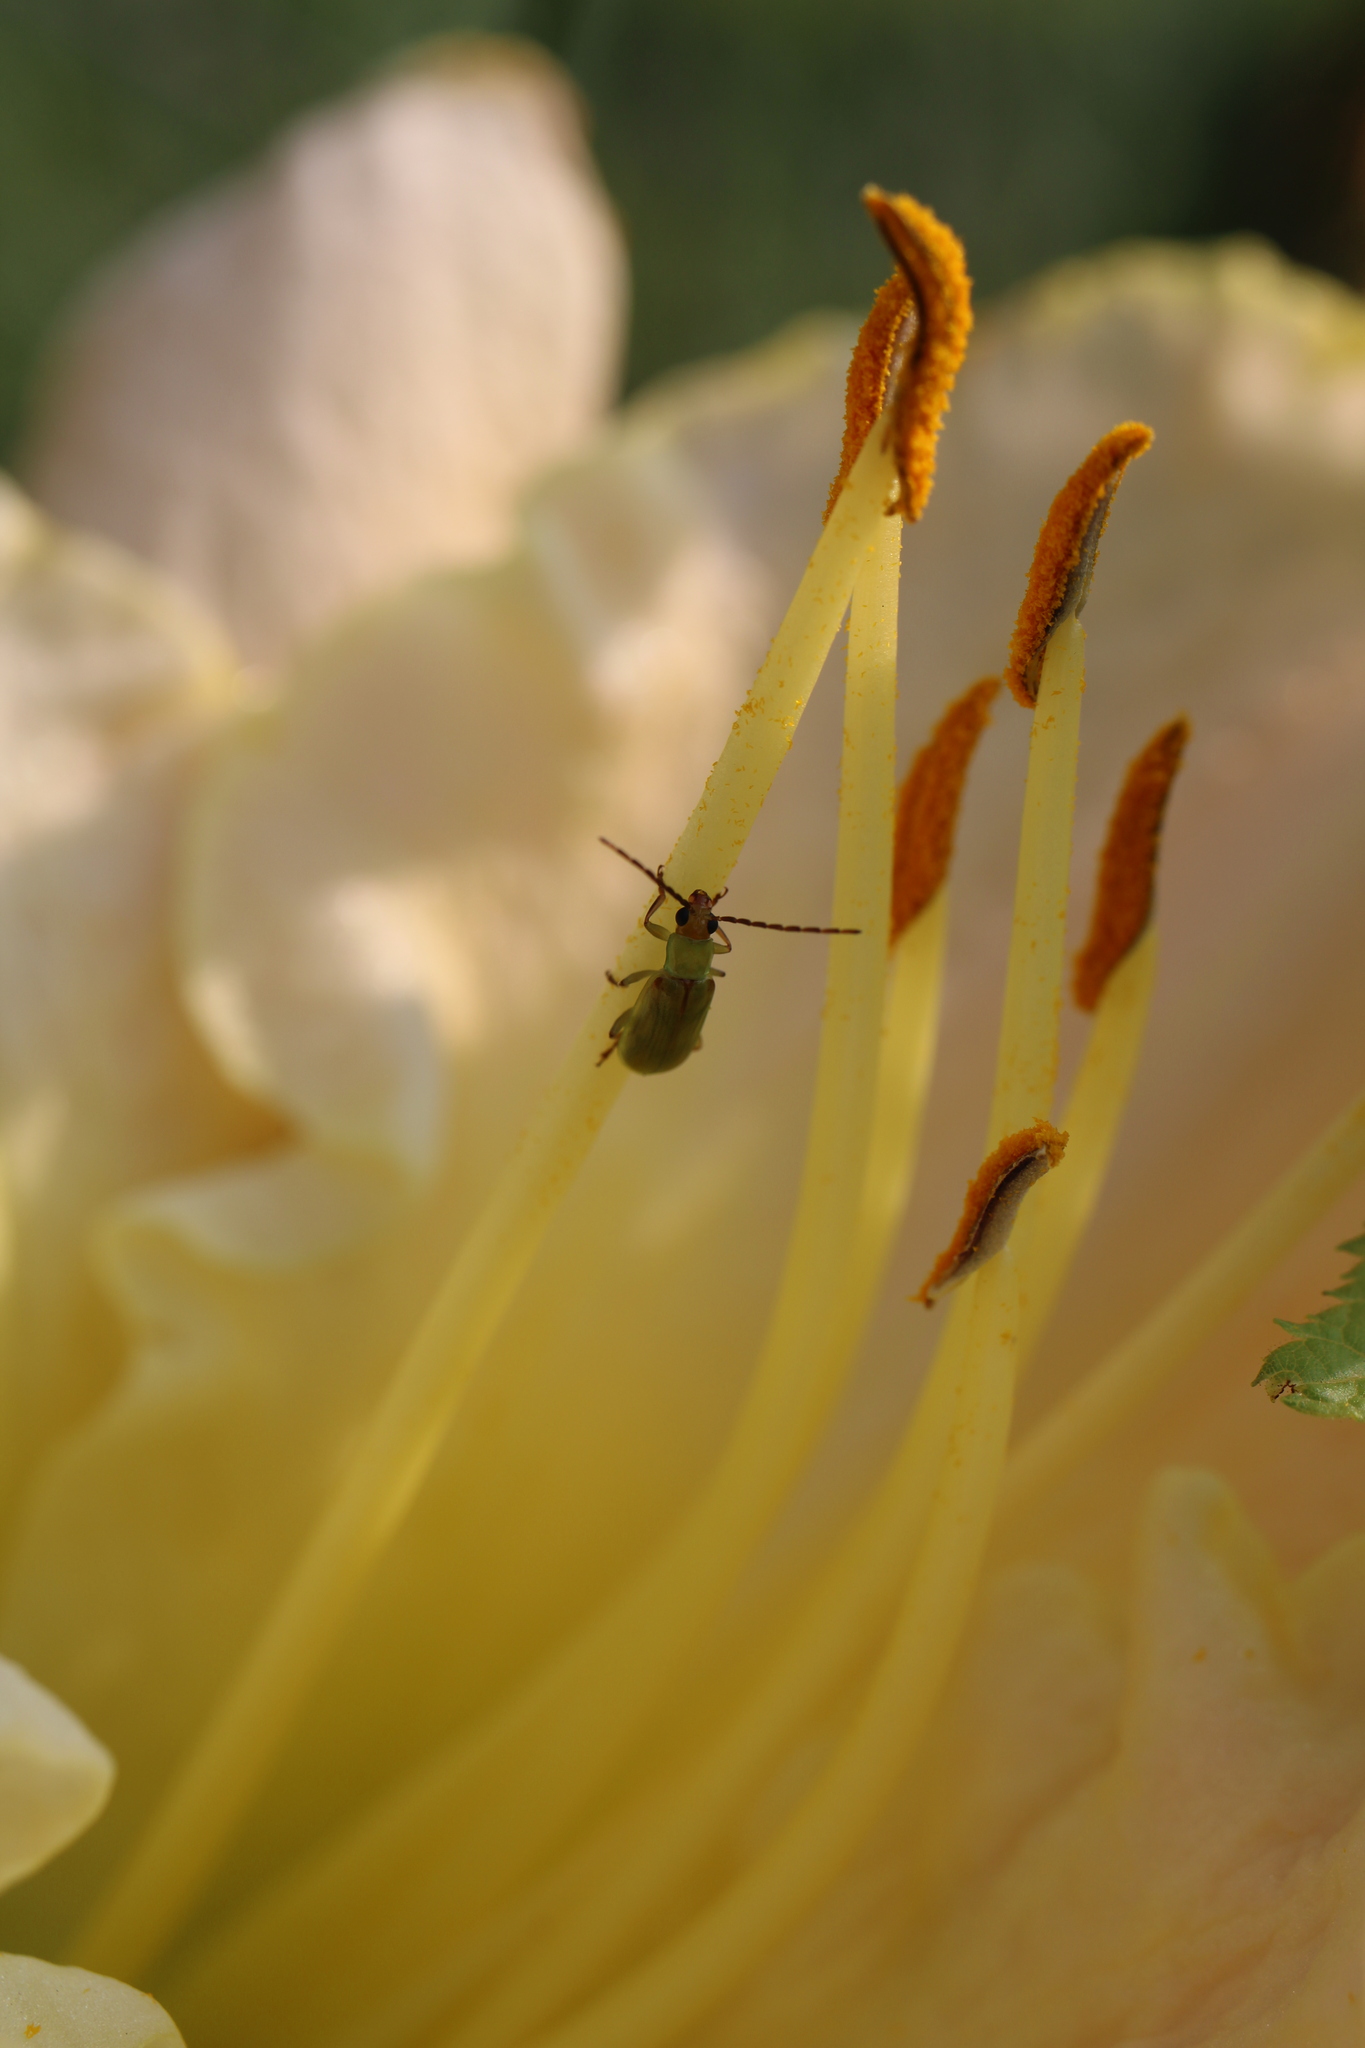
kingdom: Animalia
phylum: Arthropoda
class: Insecta
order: Coleoptera
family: Chrysomelidae
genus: Diabrotica
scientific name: Diabrotica barberi
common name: Northern corn rootworm
